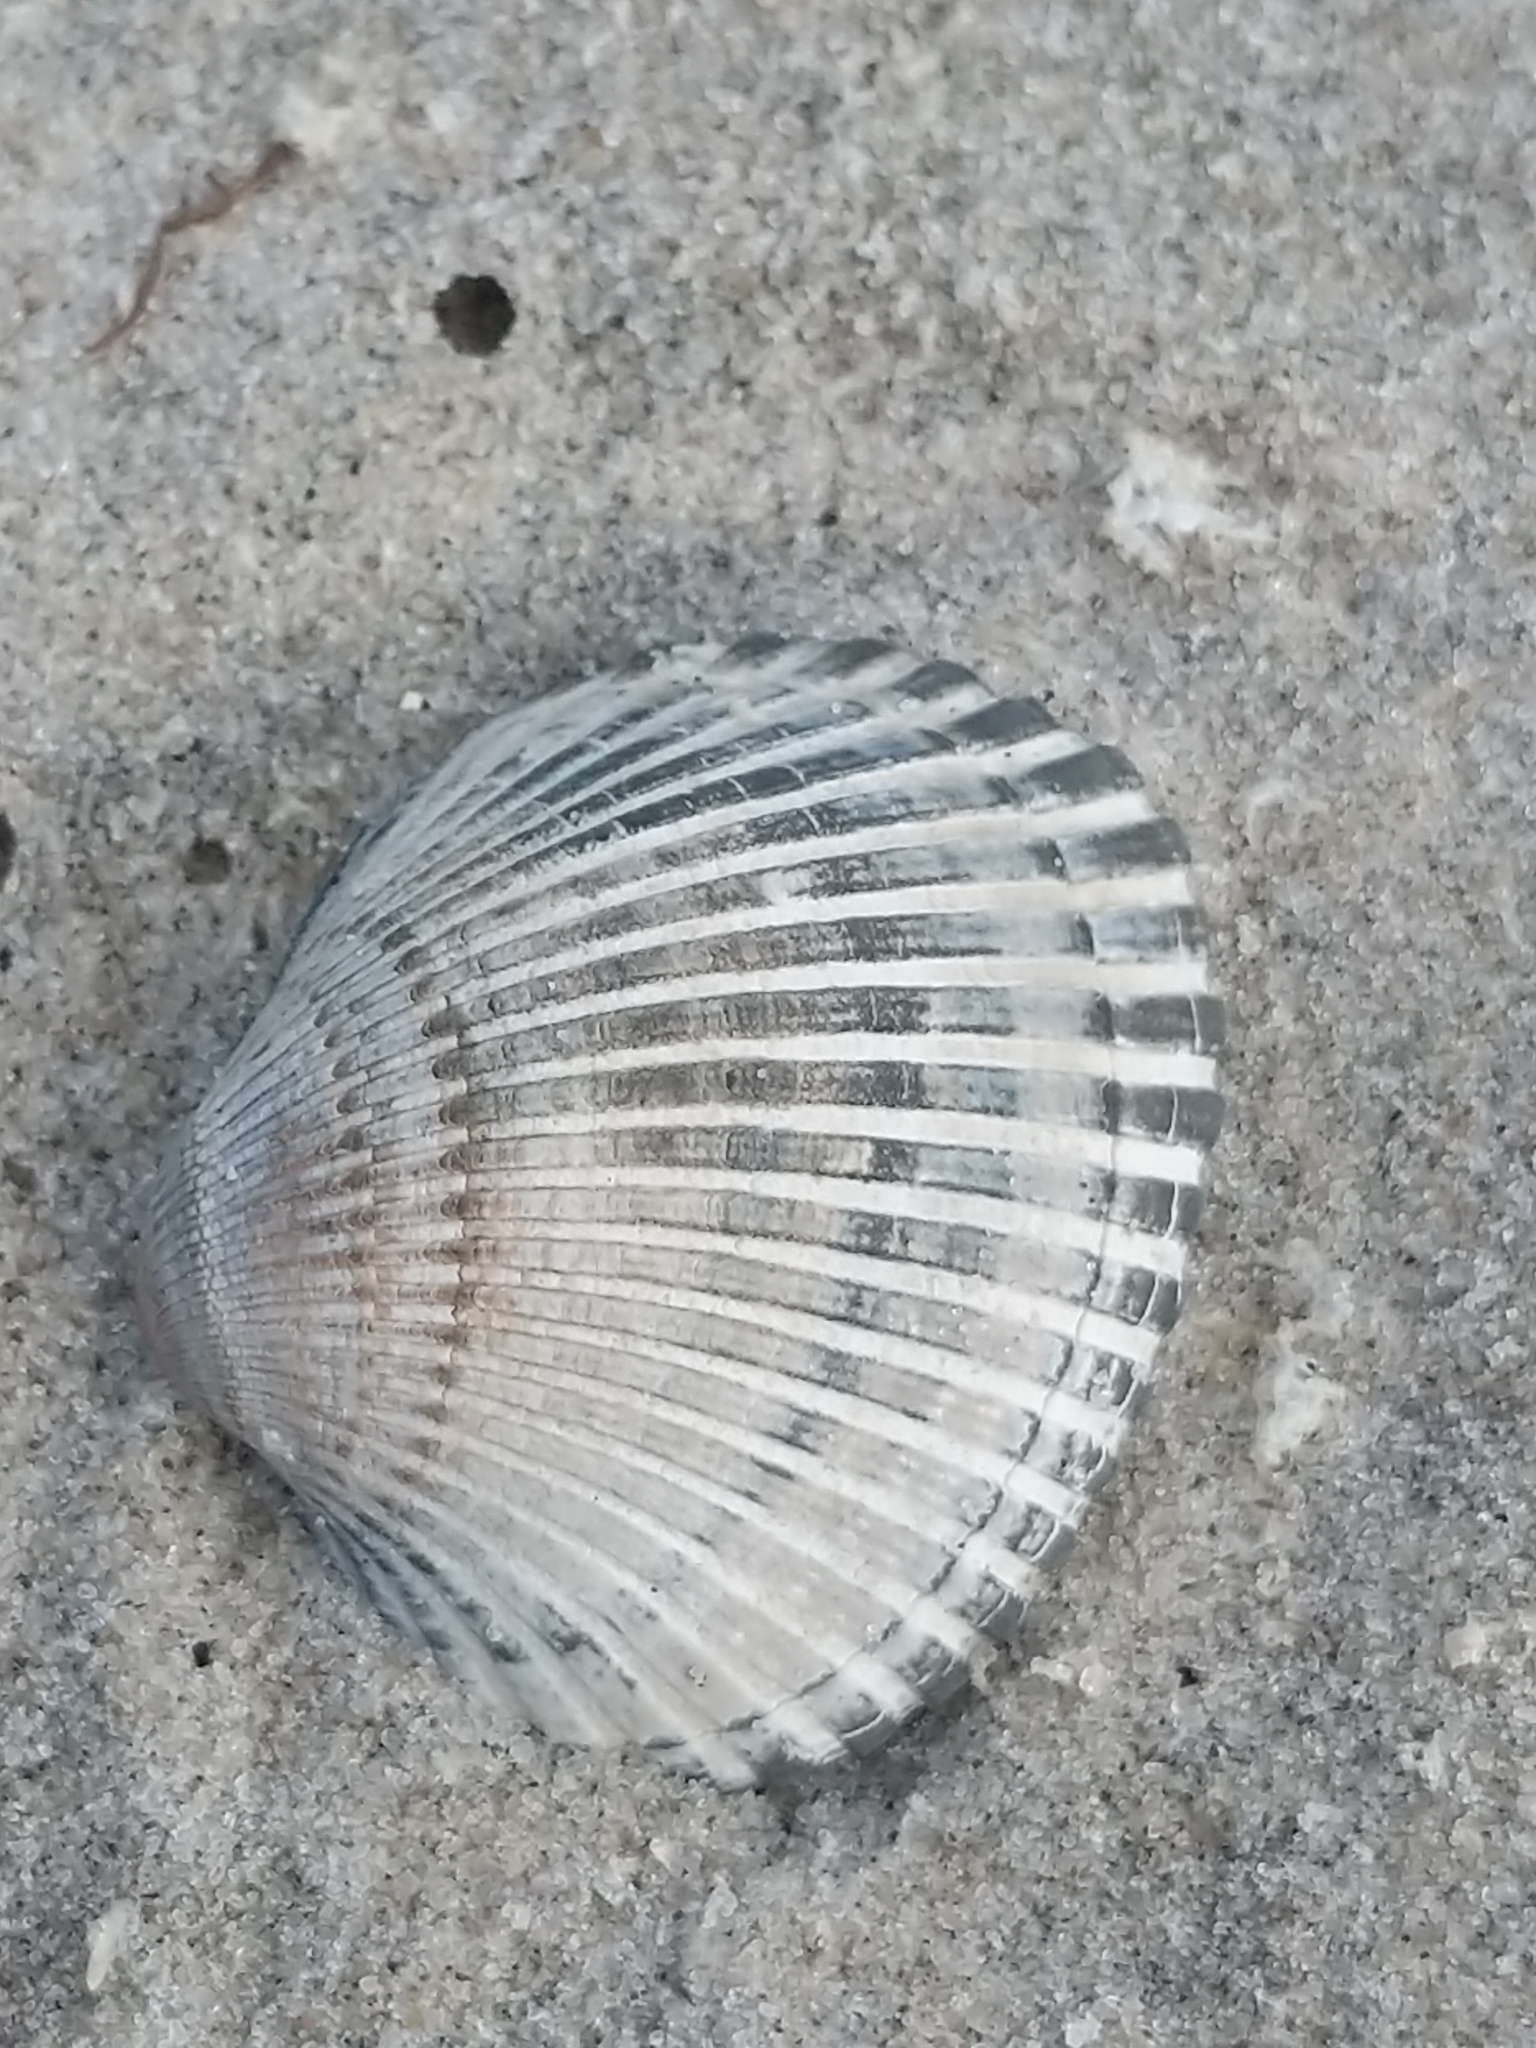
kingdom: Animalia
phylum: Mollusca
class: Bivalvia
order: Arcida
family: Arcidae
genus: Lunarca
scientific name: Lunarca ovalis
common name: Blood ark
